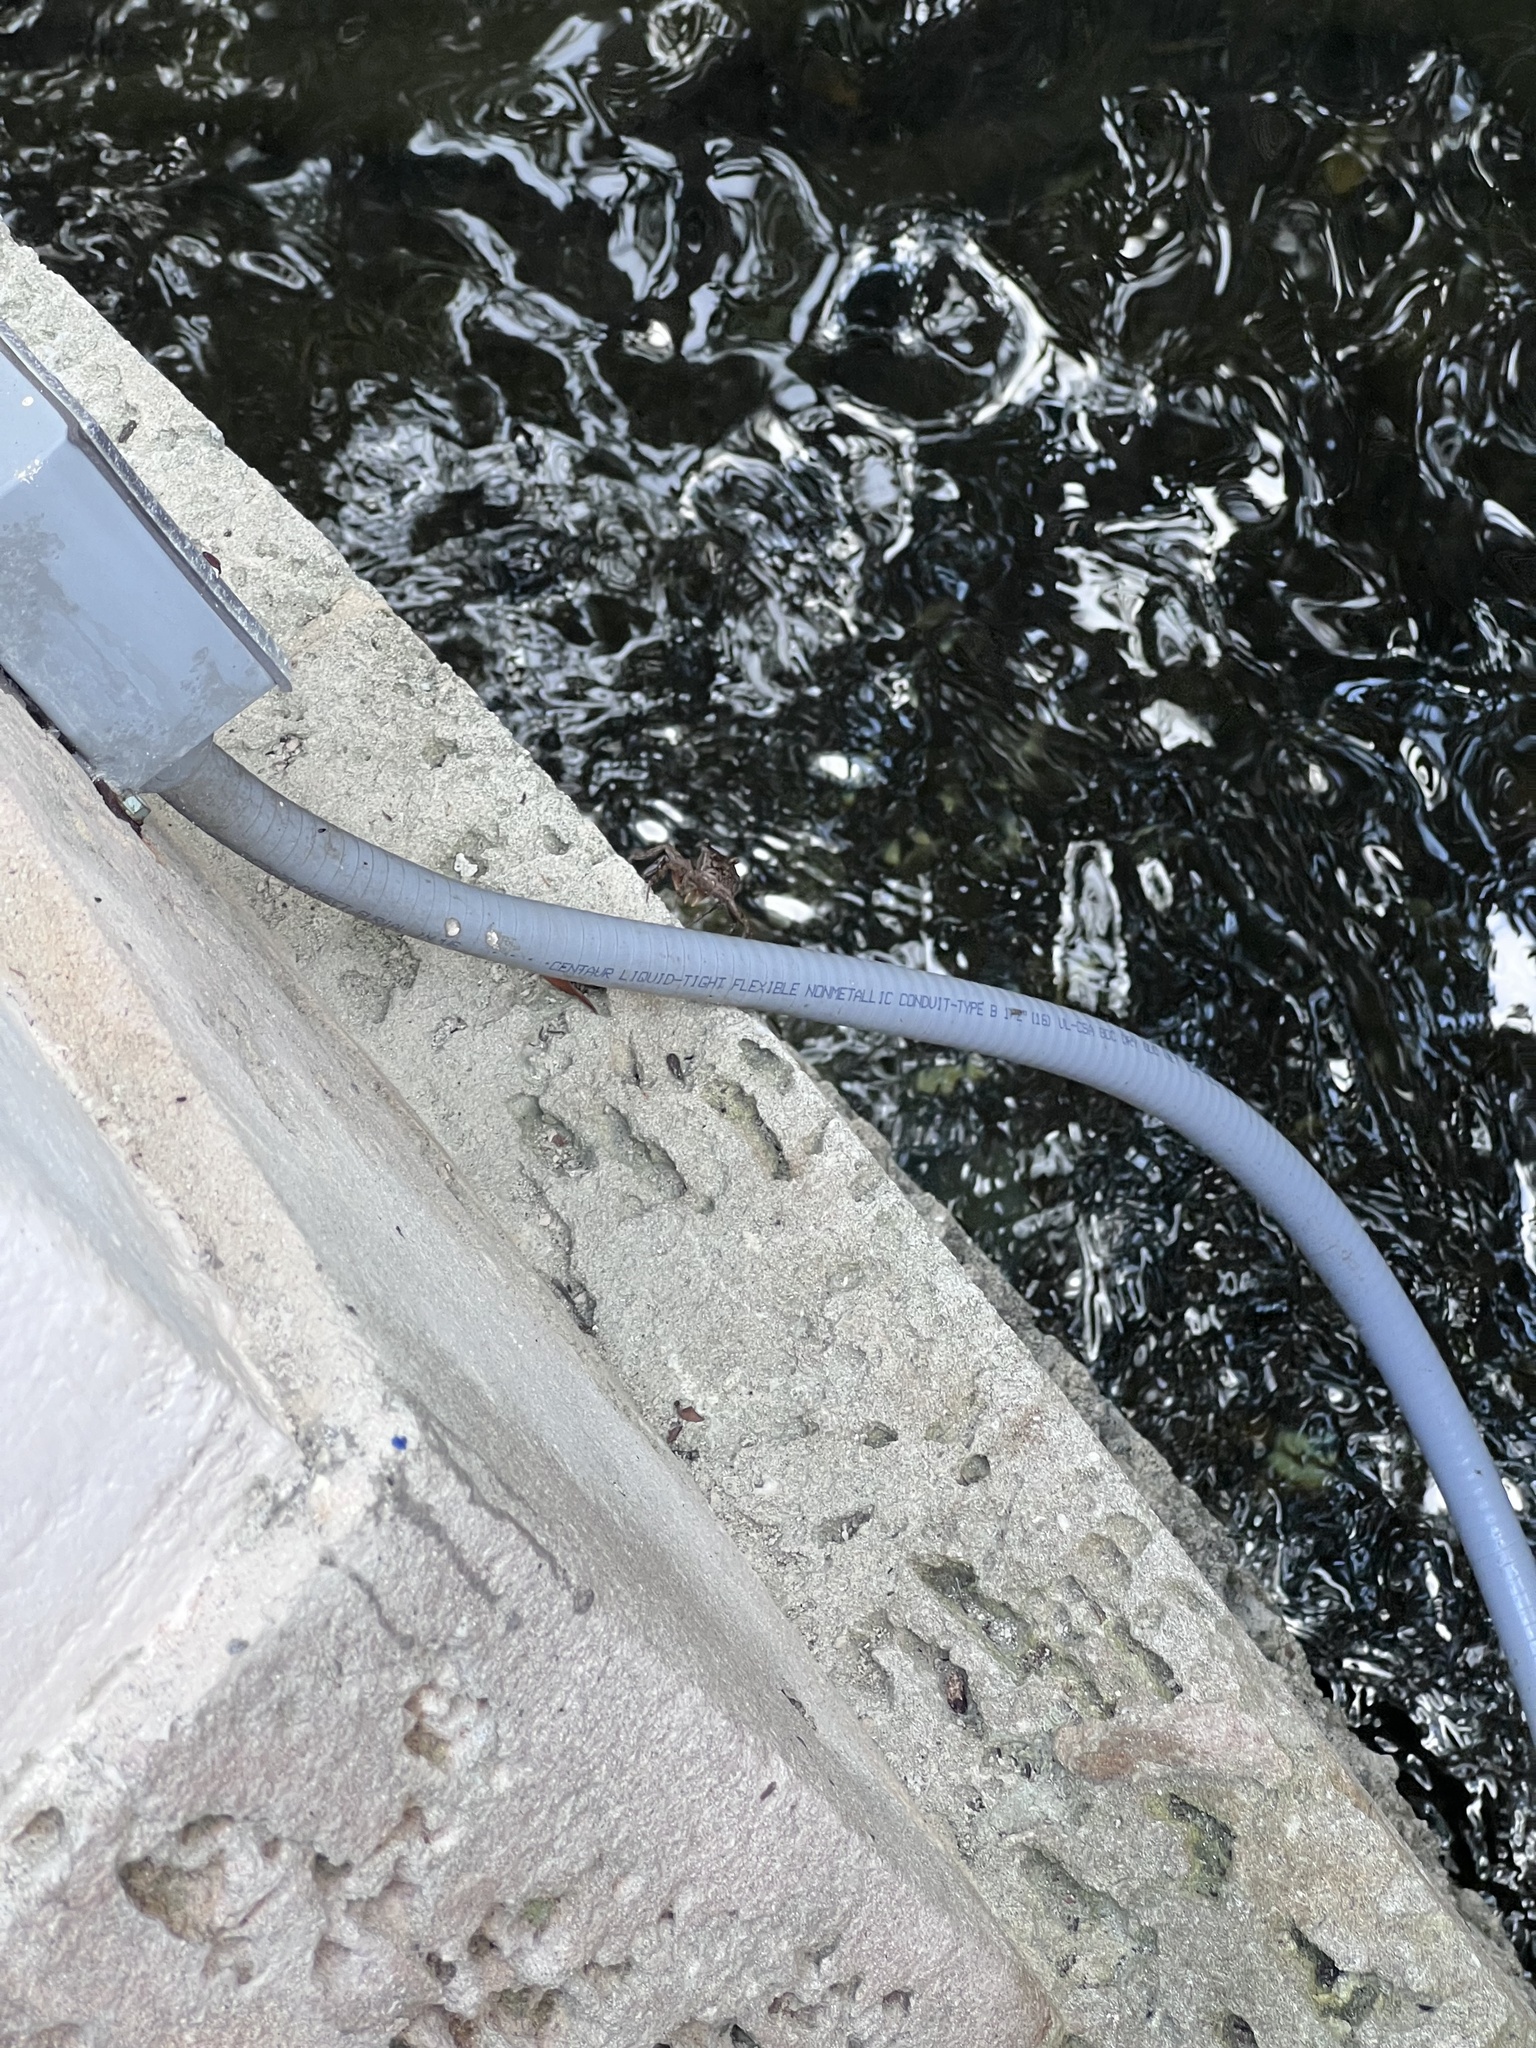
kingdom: Animalia
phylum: Arthropoda
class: Malacostraca
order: Decapoda
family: Sesarmidae
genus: Aratus
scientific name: Aratus pisonii
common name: Mangrove crab
